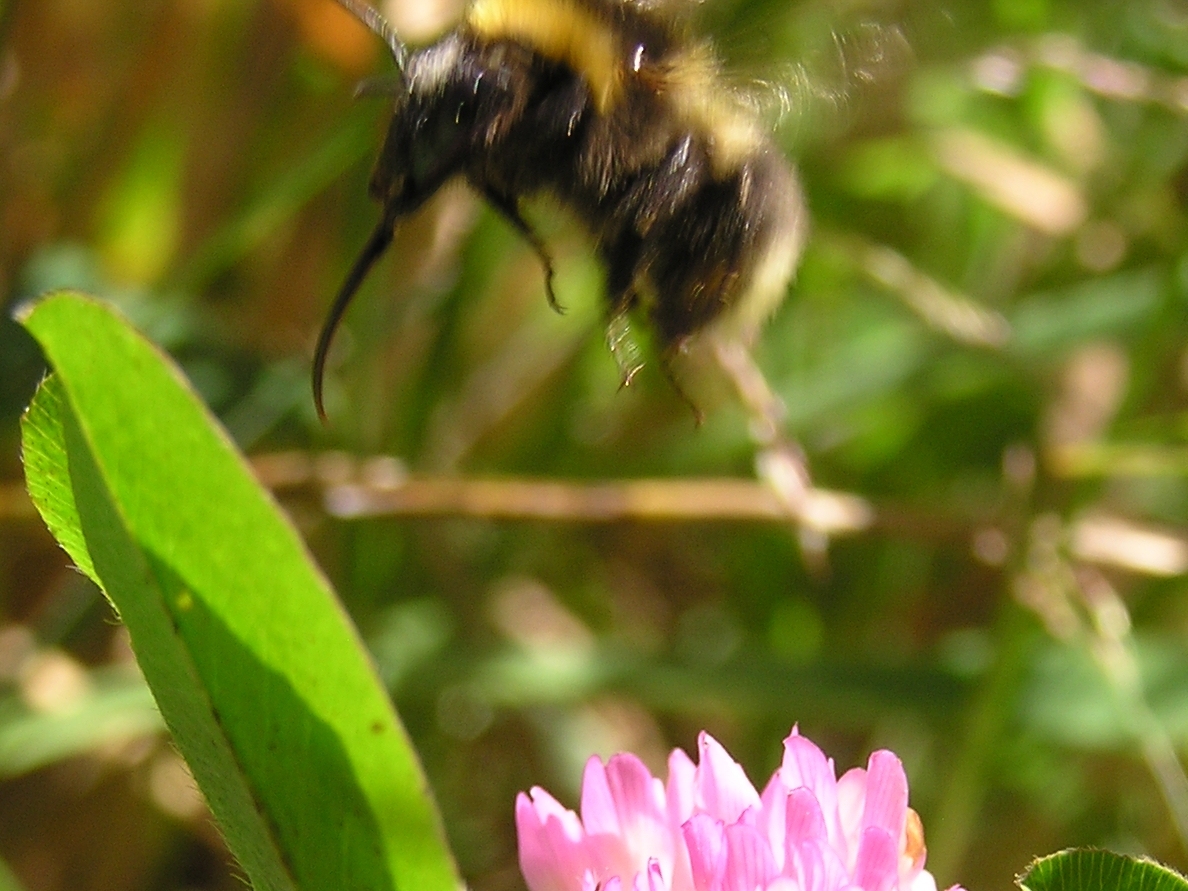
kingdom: Animalia
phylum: Arthropoda
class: Insecta
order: Hymenoptera
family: Apidae
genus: Megabombus
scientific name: Megabombus
